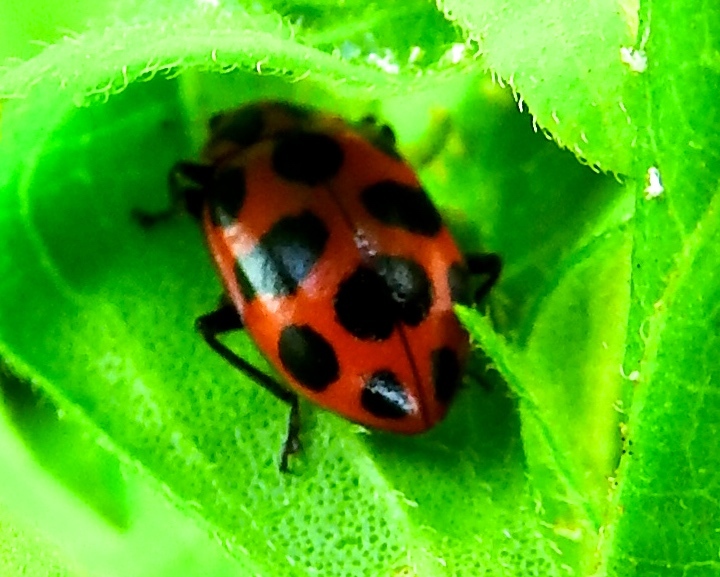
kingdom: Animalia
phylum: Arthropoda
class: Insecta
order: Coleoptera
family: Coccinellidae
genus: Coleomegilla
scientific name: Coleomegilla maculata
